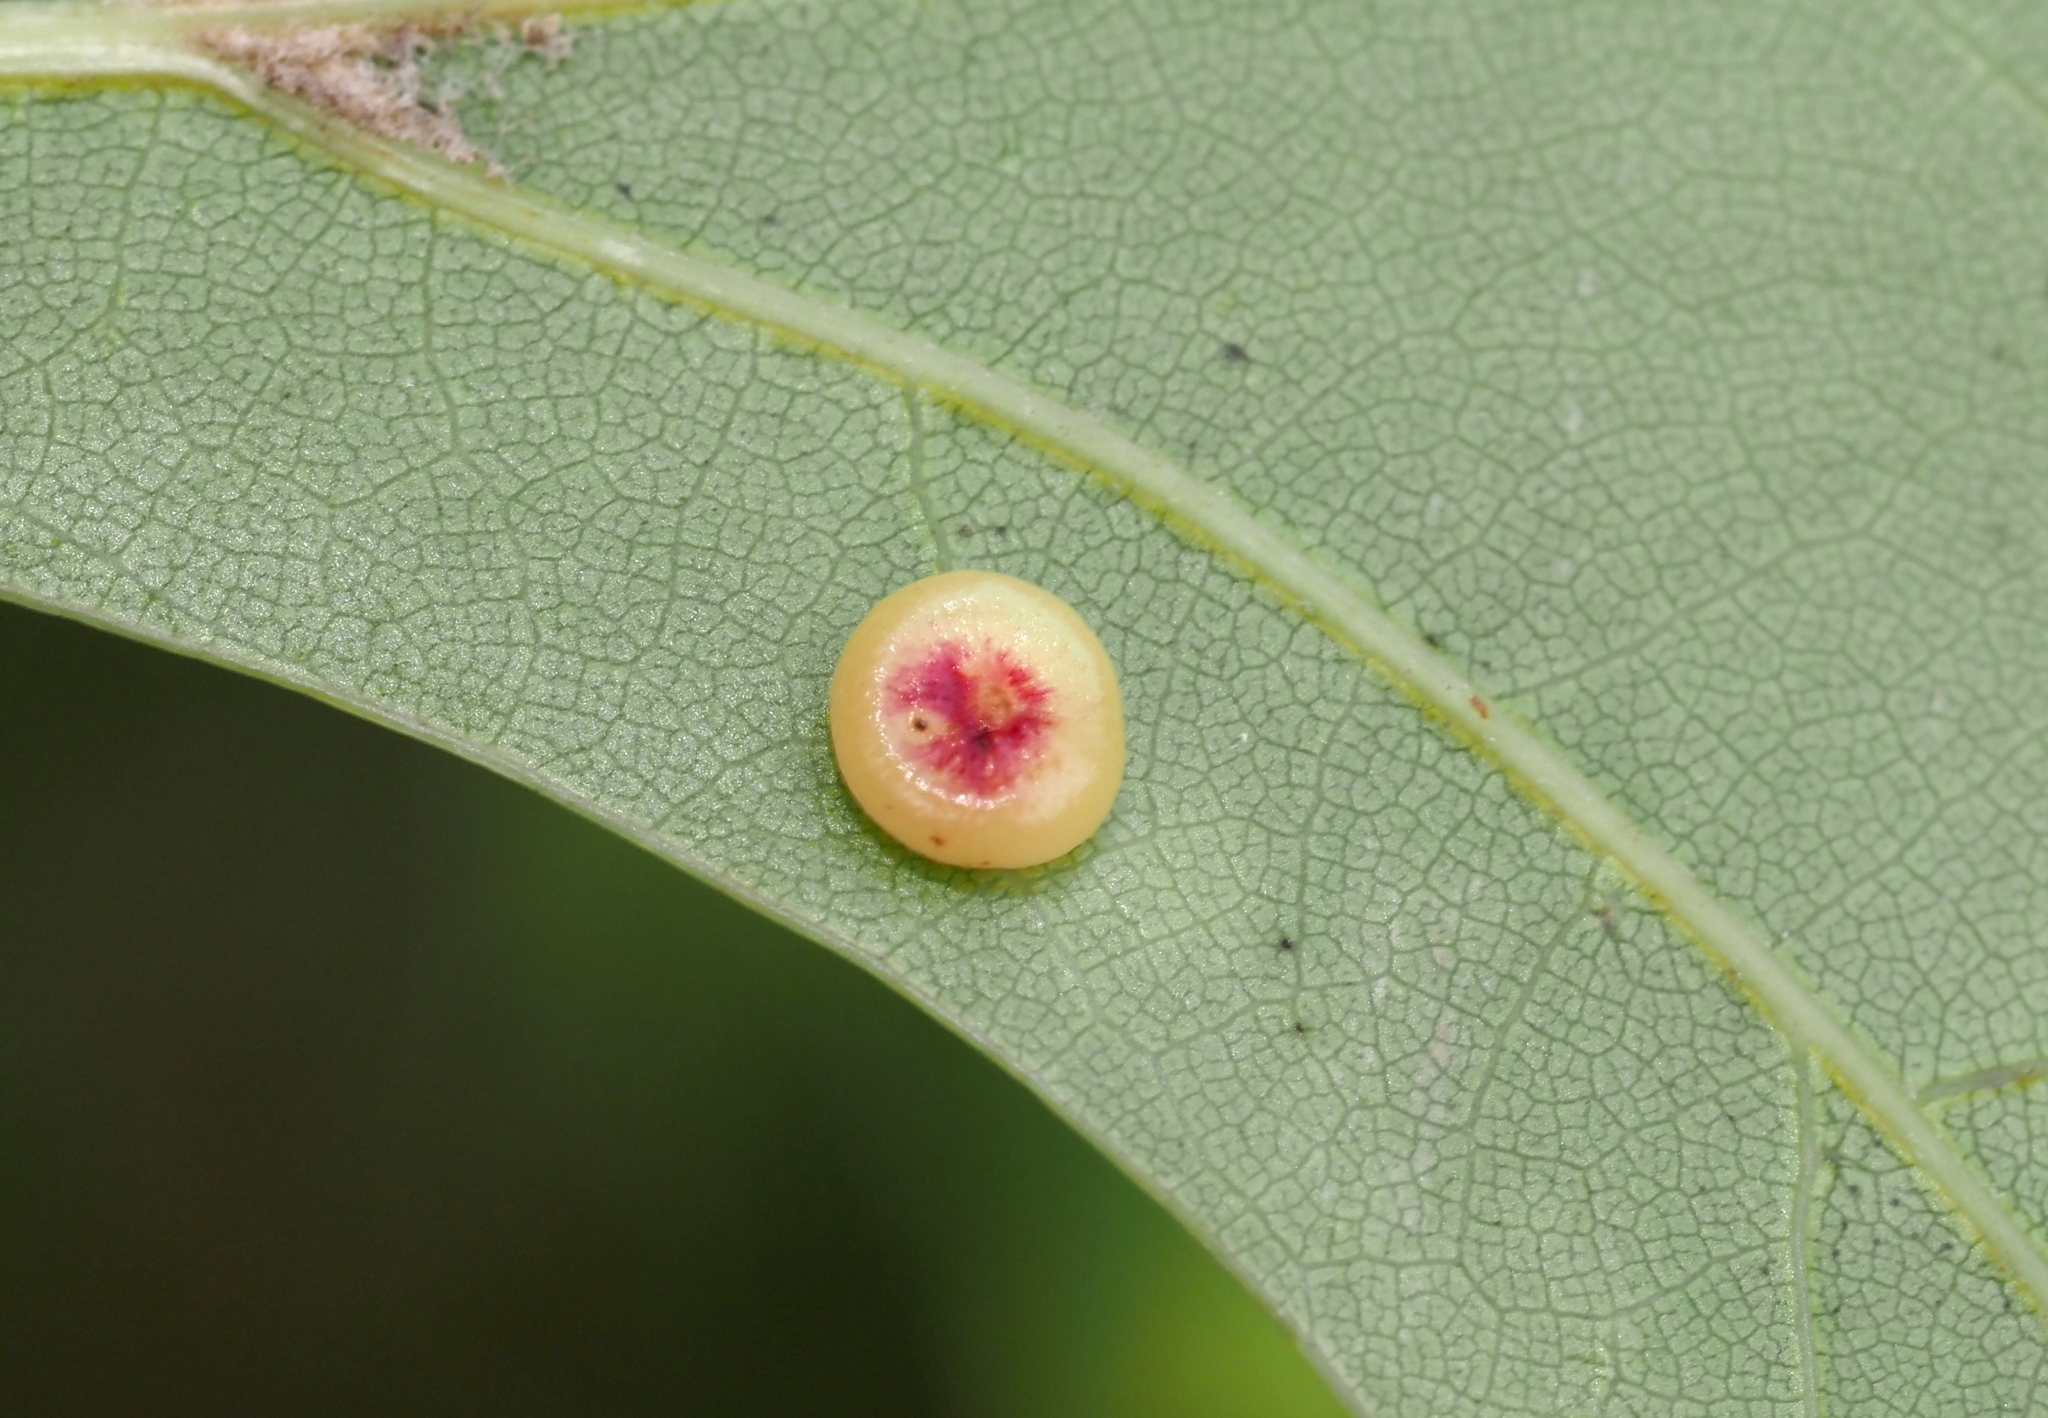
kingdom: Animalia
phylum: Arthropoda
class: Insecta
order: Hymenoptera
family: Cynipidae
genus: Dryocosmus
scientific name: Dryocosmus
